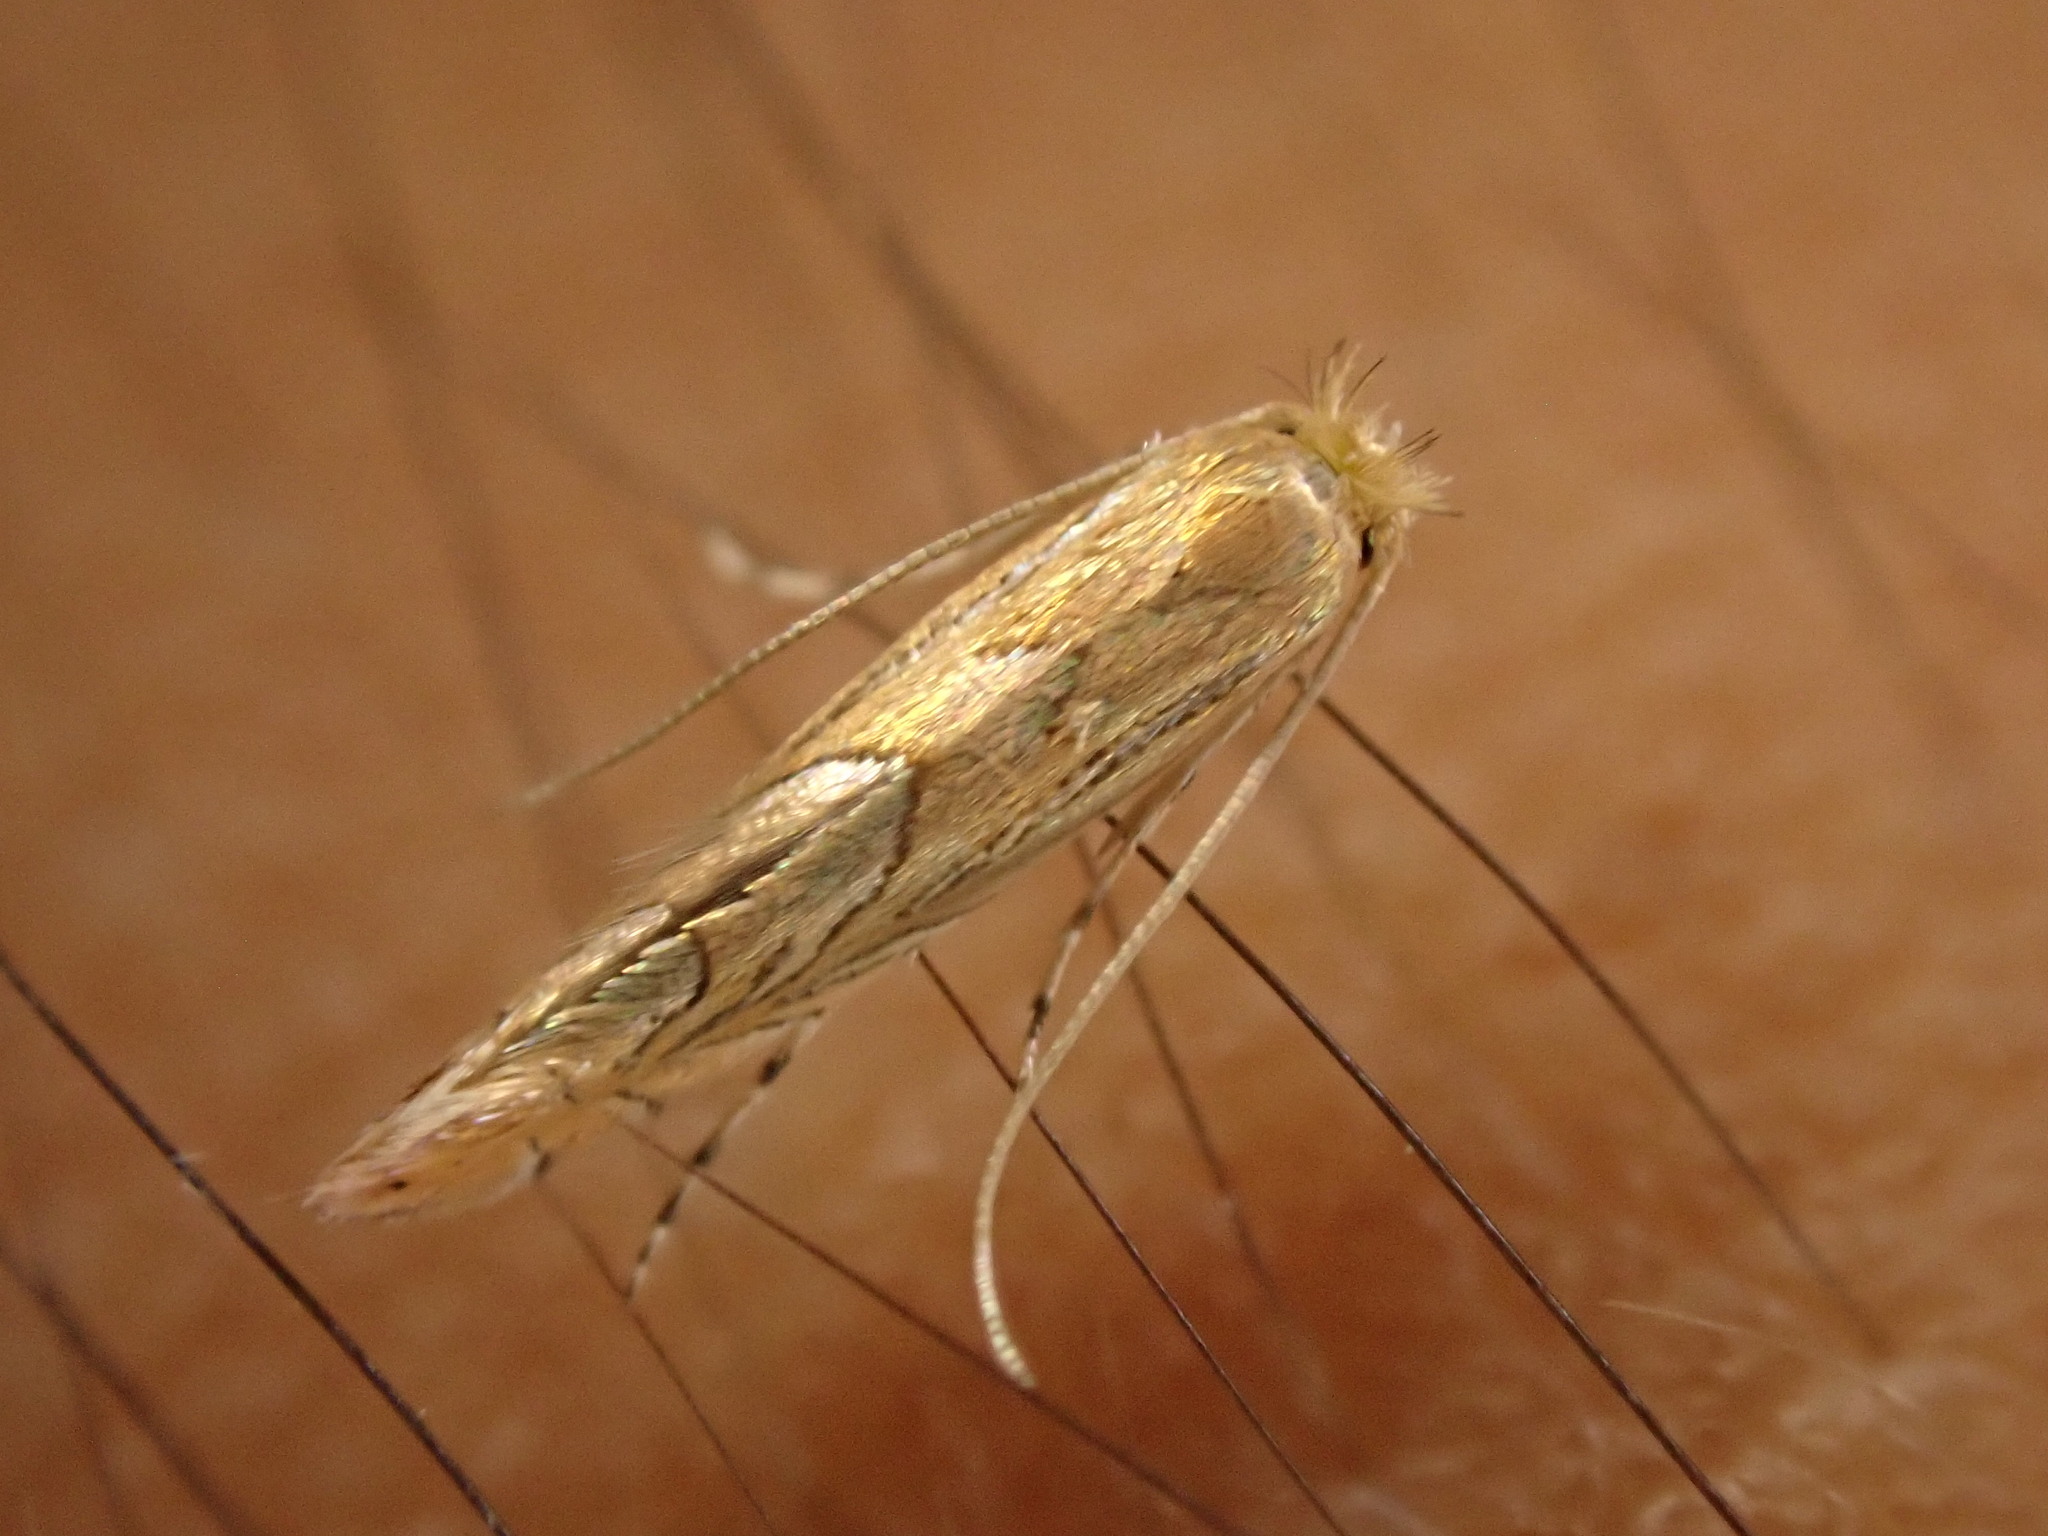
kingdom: Animalia
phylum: Arthropoda
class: Insecta
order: Lepidoptera
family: Gracillariidae
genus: Phyllonorycter
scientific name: Phyllonorycter messaniella
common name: Garden midget
